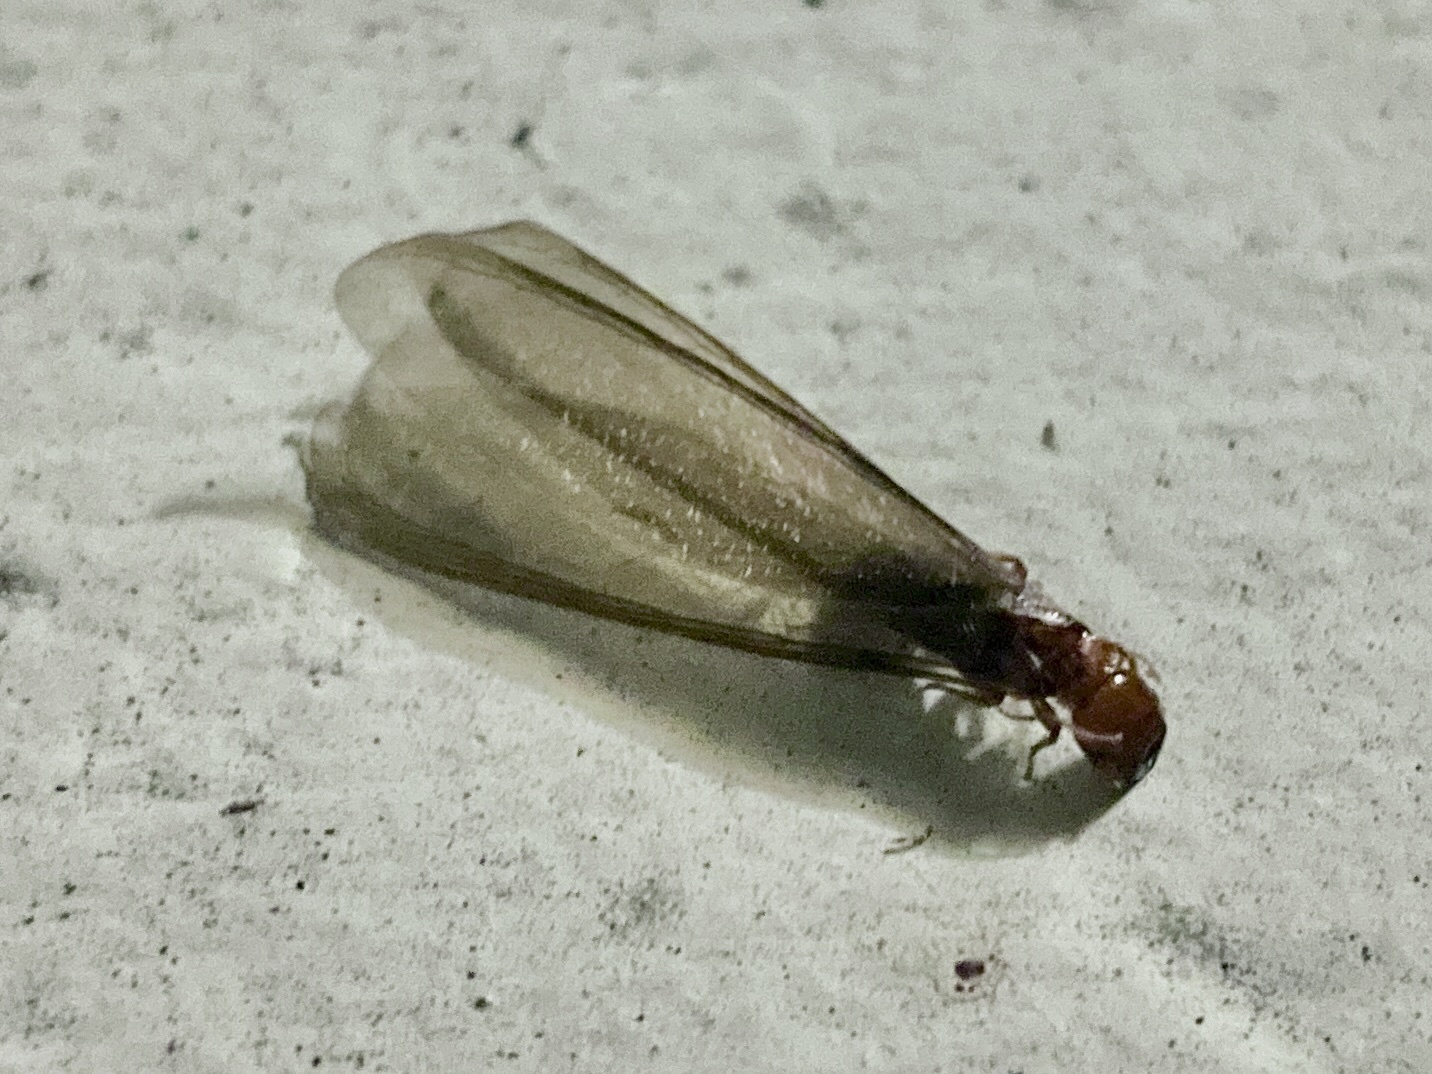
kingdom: Animalia
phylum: Arthropoda
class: Insecta
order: Blattodea
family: Kalotermitidae
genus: Incisitermes
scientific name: Incisitermes minor
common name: Termite
